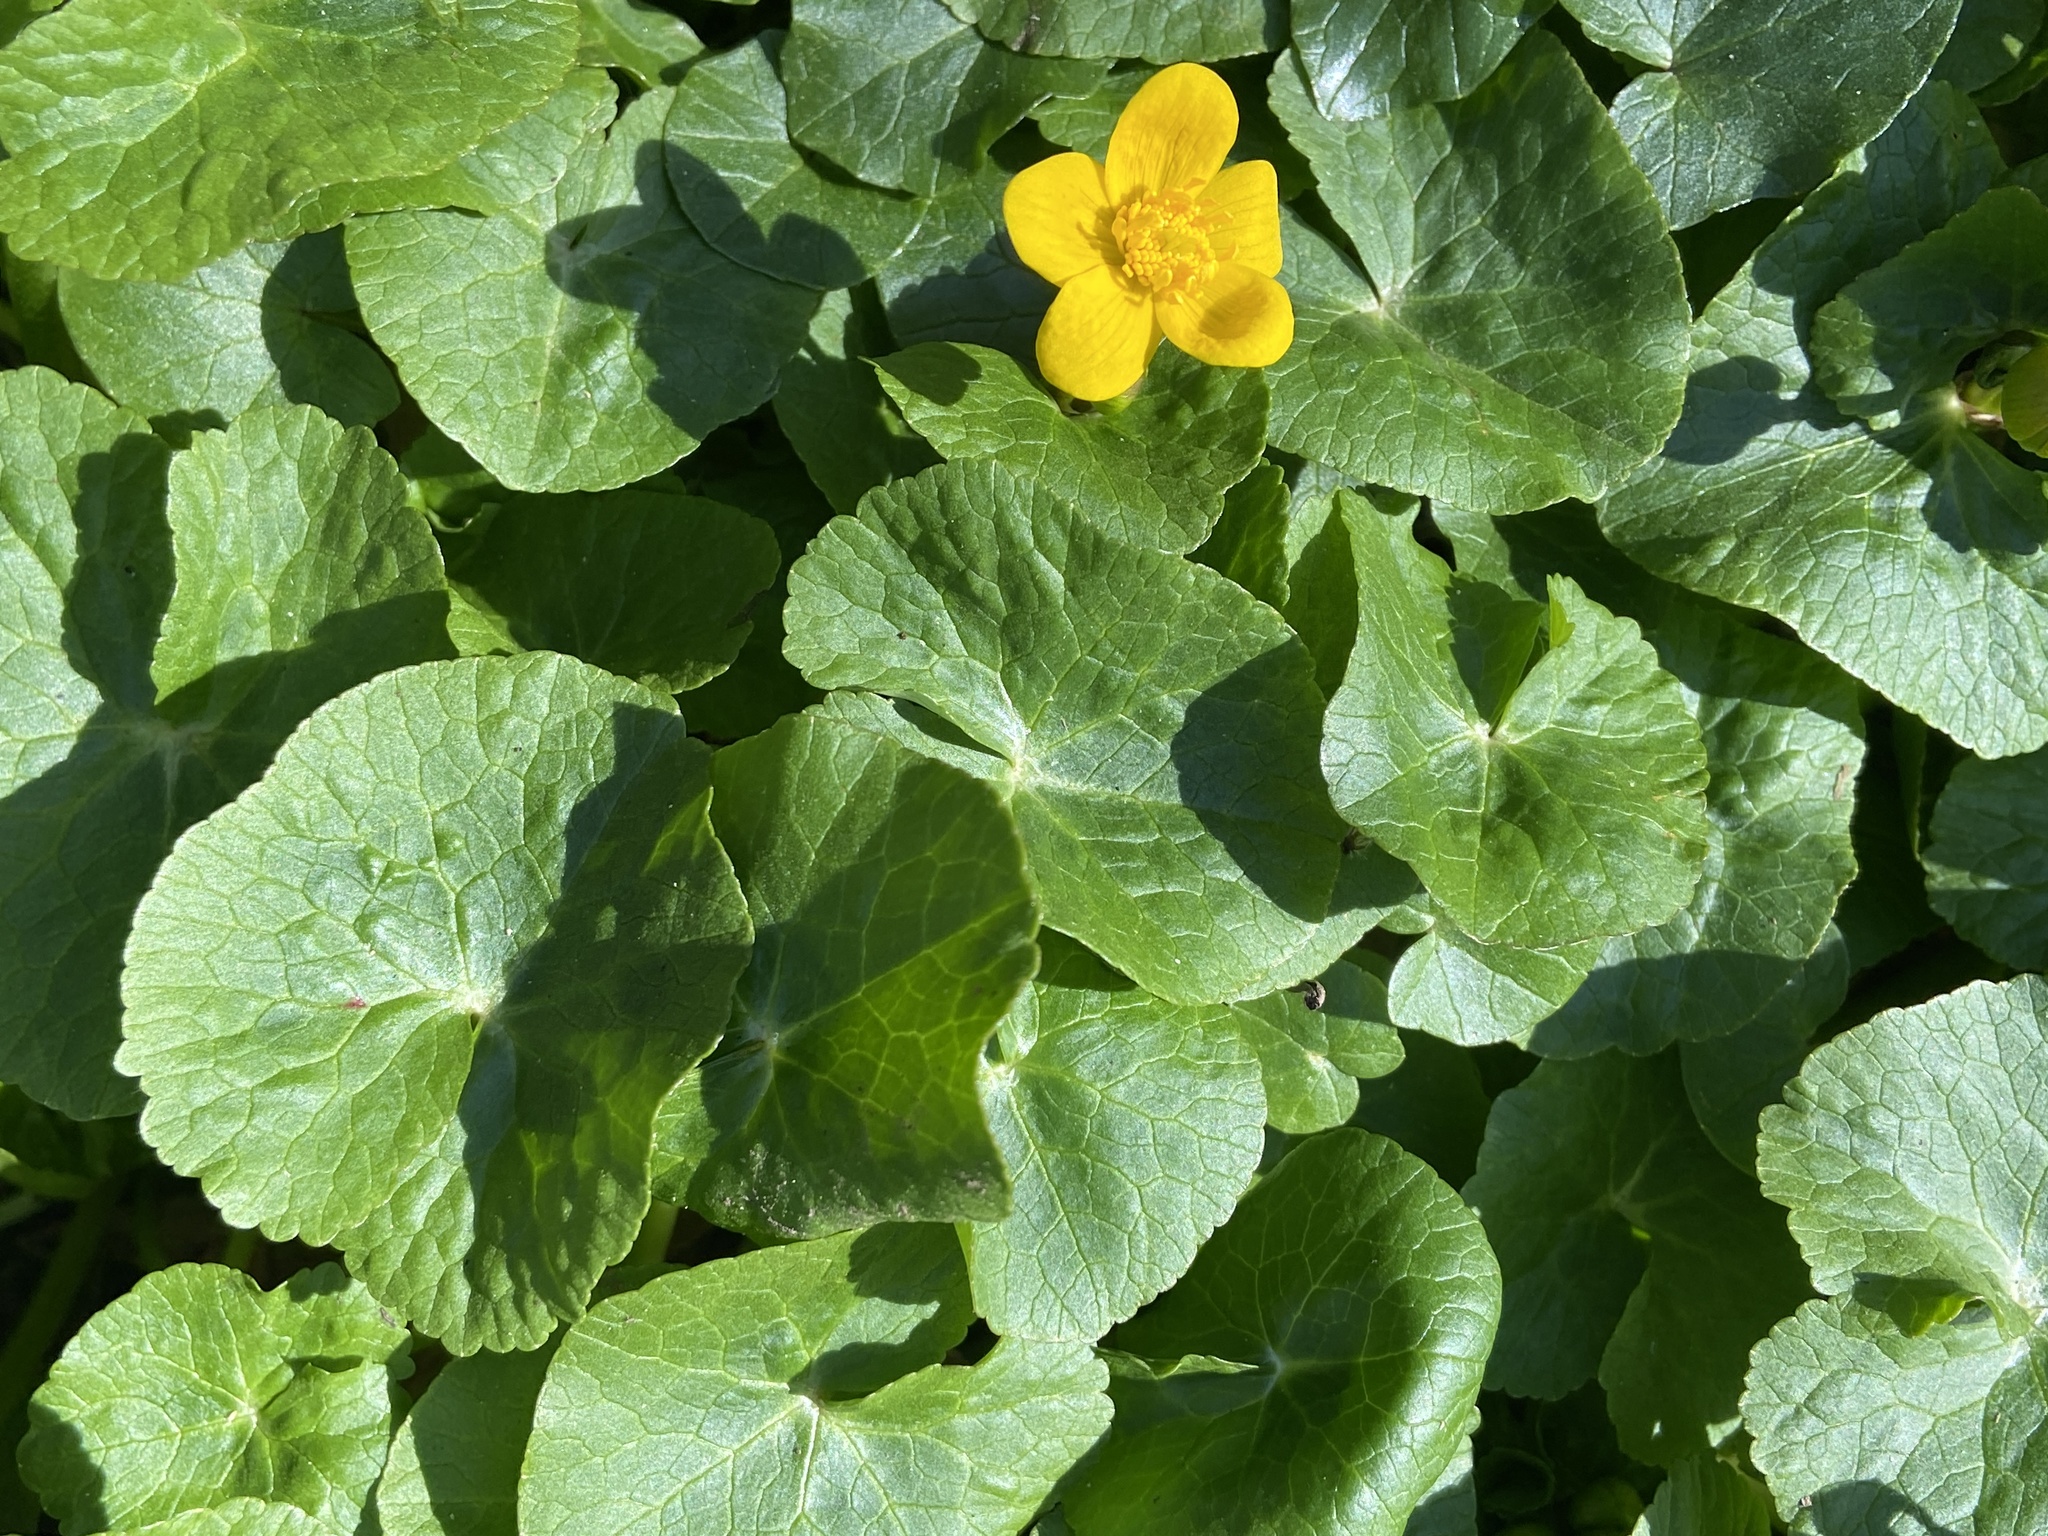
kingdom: Plantae
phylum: Tracheophyta
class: Magnoliopsida
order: Ranunculales
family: Ranunculaceae
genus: Caltha
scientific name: Caltha palustris
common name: Marsh marigold
